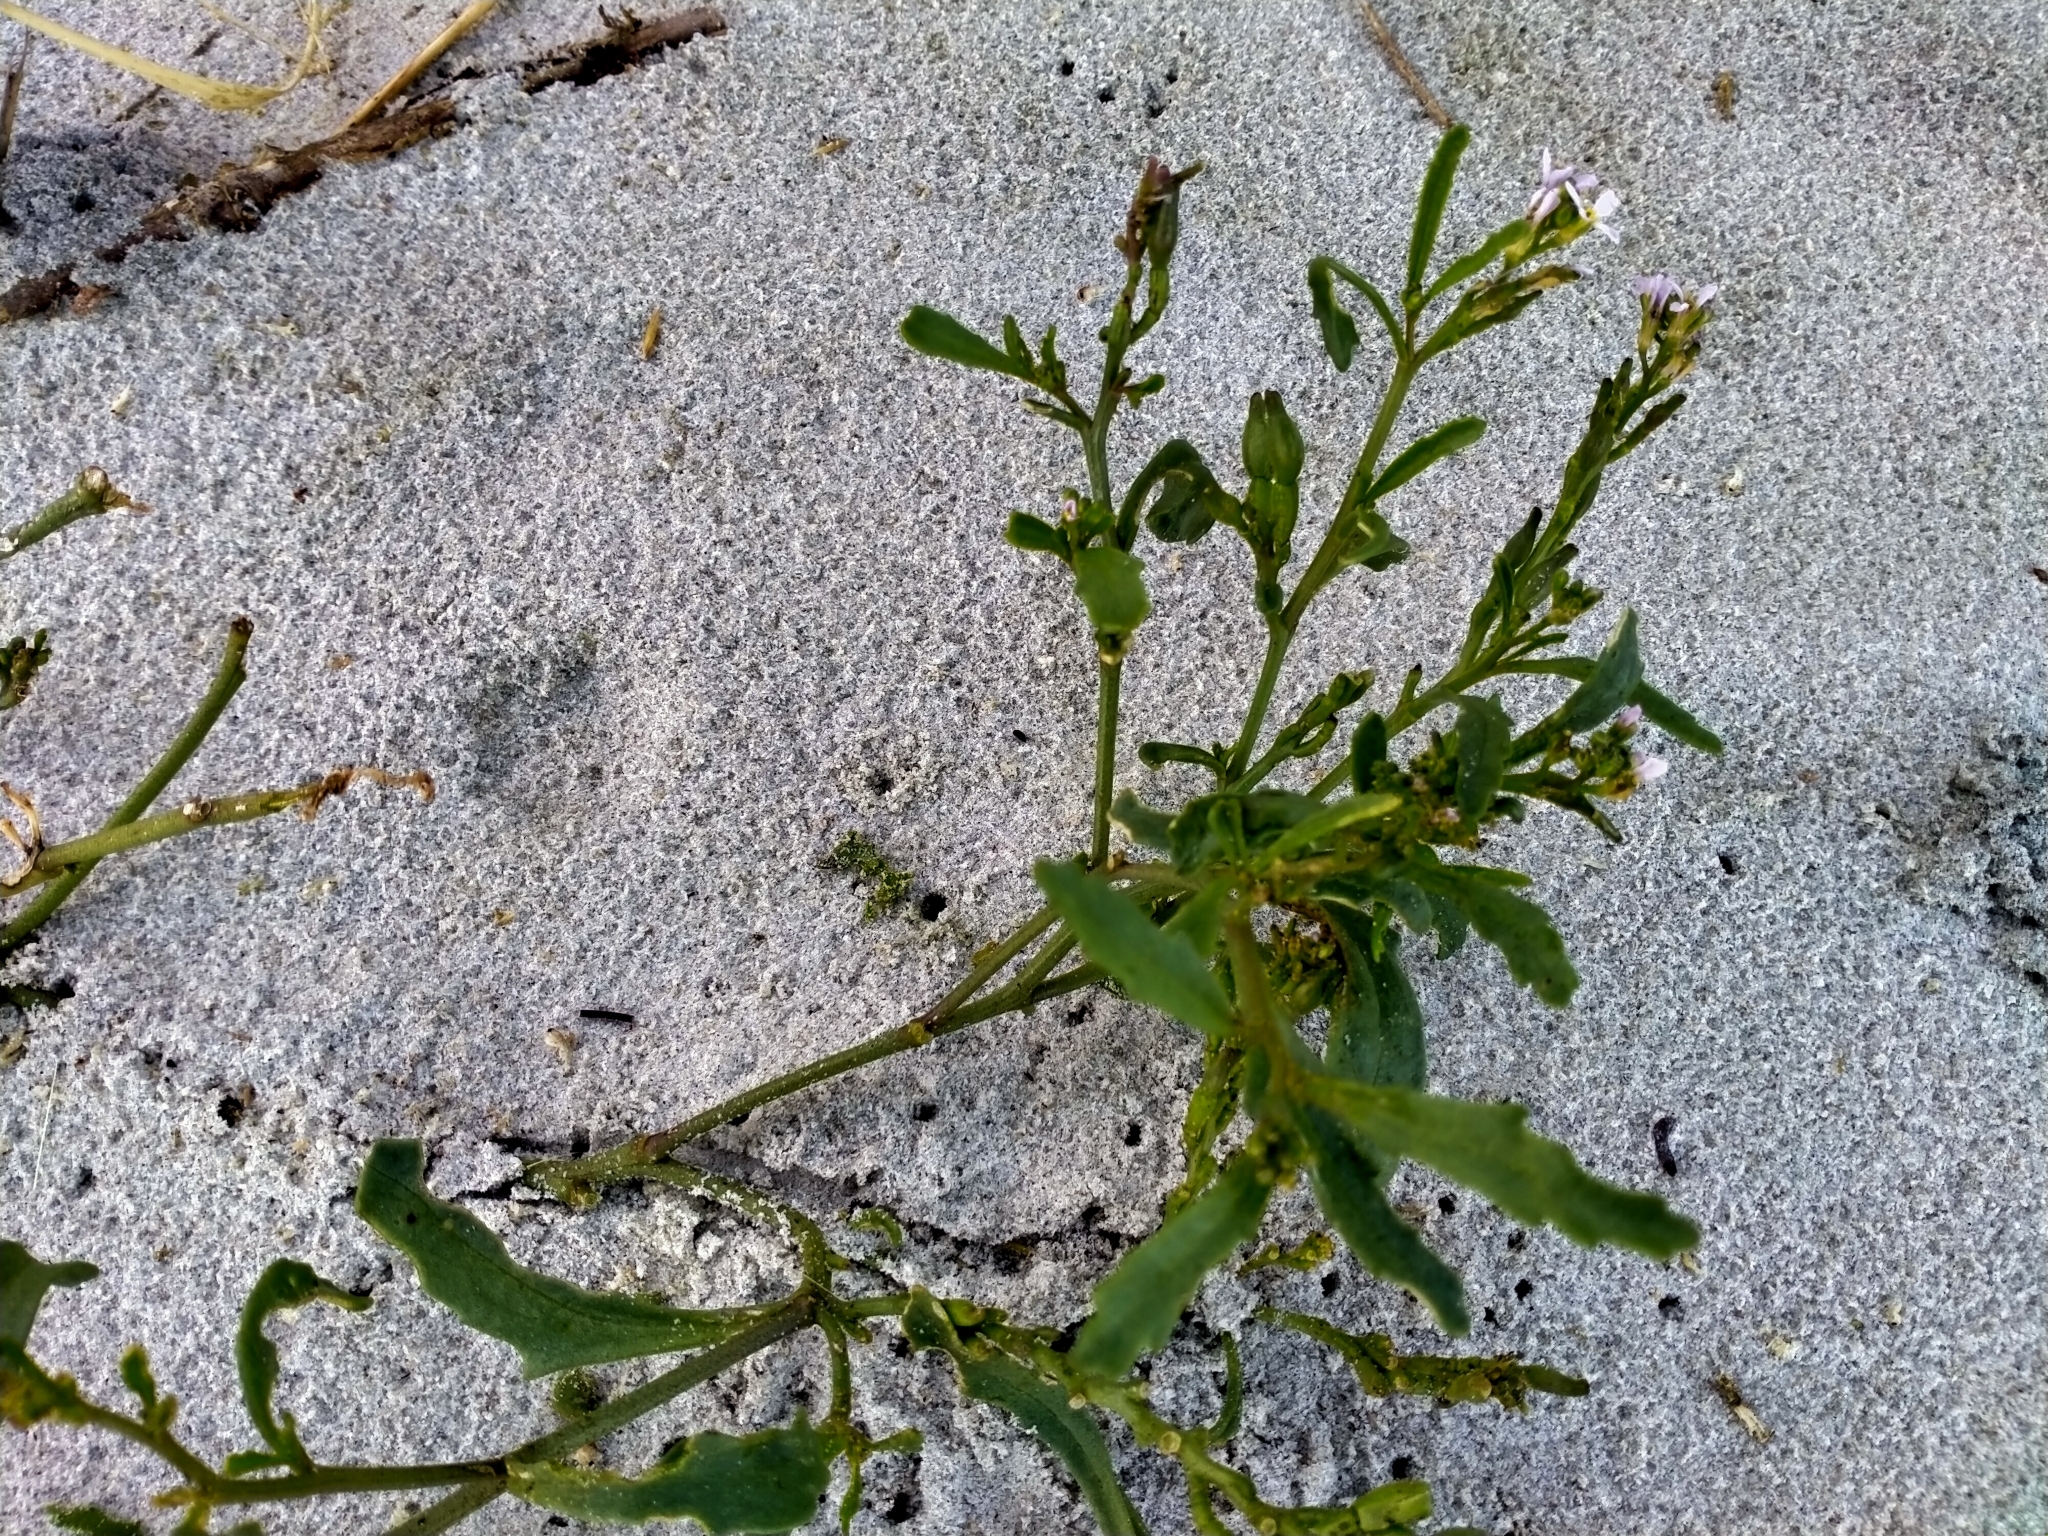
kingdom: Plantae
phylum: Tracheophyta
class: Magnoliopsida
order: Brassicales
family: Brassicaceae
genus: Cakile
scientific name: Cakile edentula
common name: American sea rocket
